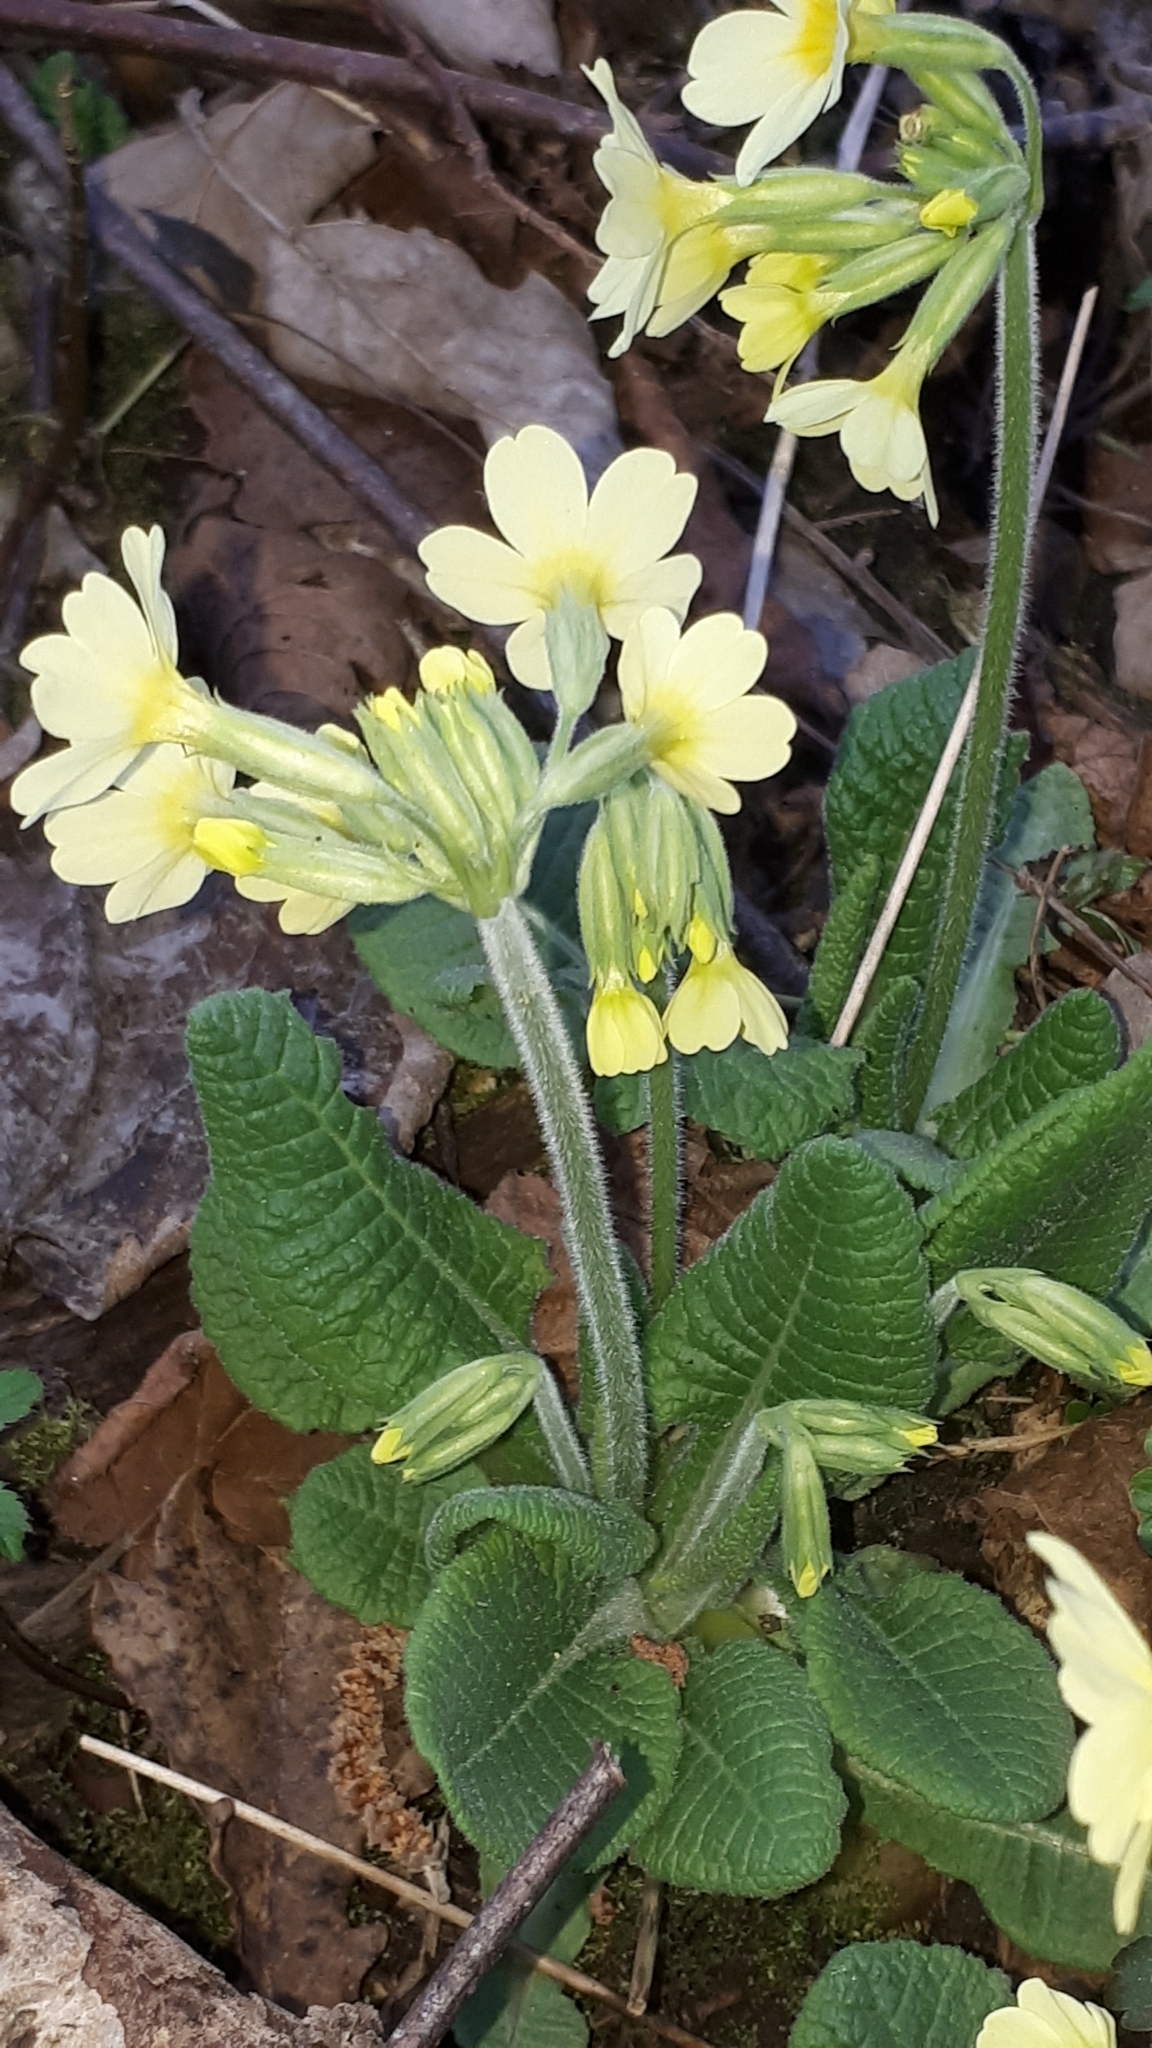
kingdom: Plantae
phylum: Tracheophyta
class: Magnoliopsida
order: Ericales
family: Primulaceae
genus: Primula
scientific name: Primula elatior
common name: Oxlip
